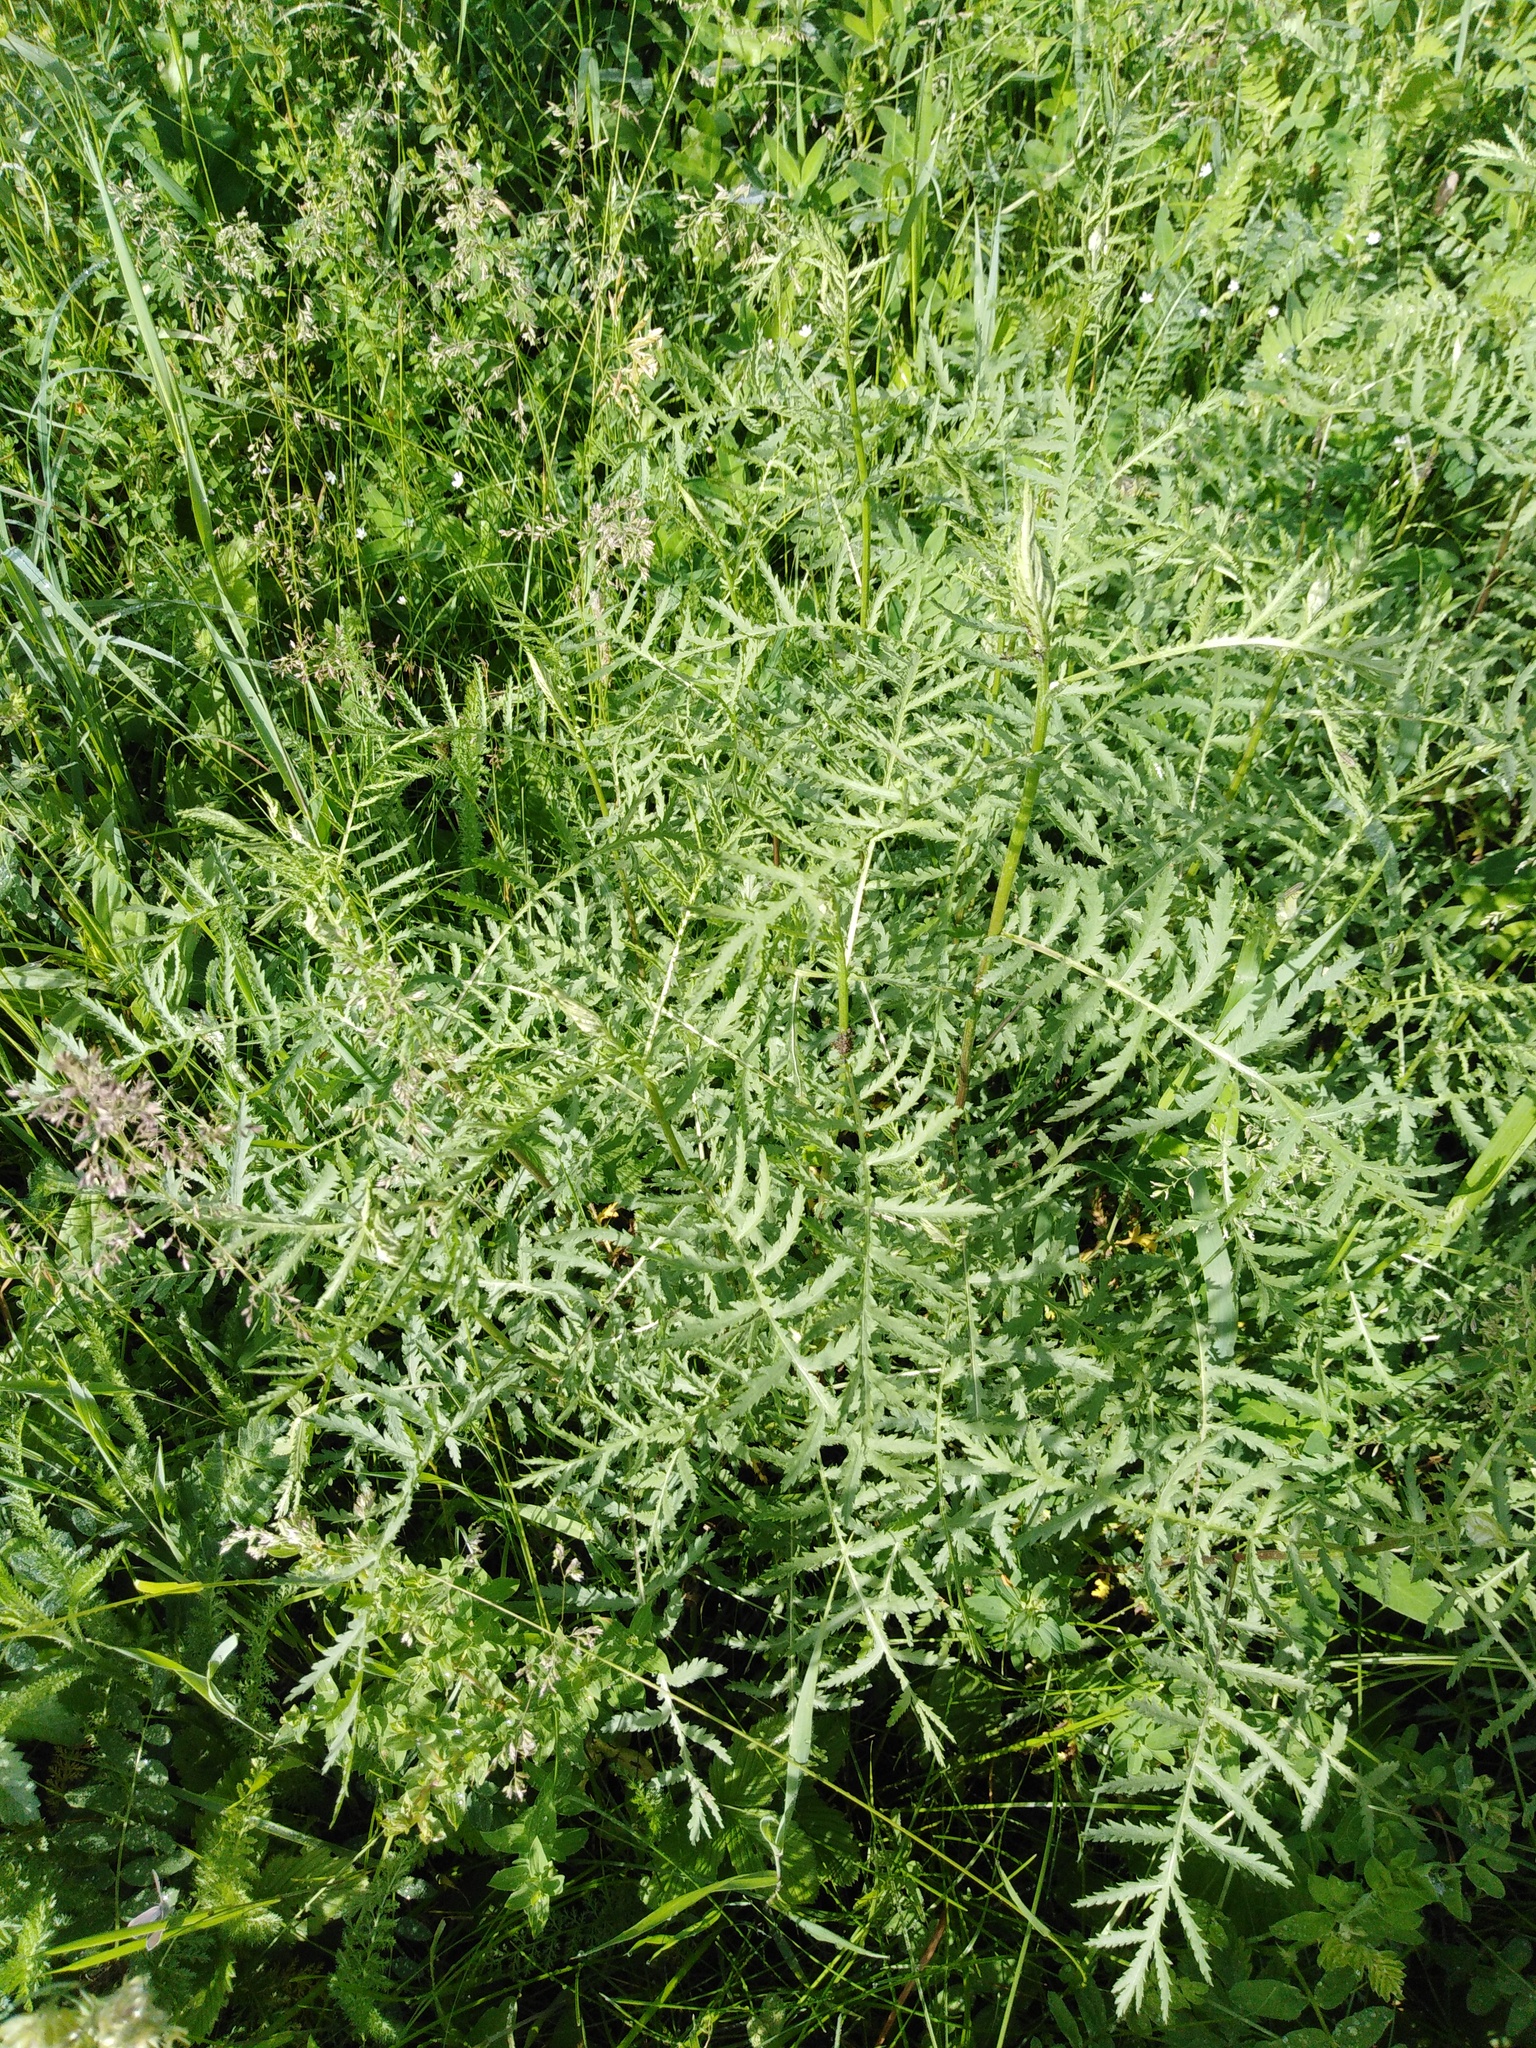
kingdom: Plantae
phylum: Tracheophyta
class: Magnoliopsida
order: Asterales
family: Asteraceae
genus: Tanacetum
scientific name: Tanacetum vulgare
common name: Common tansy
